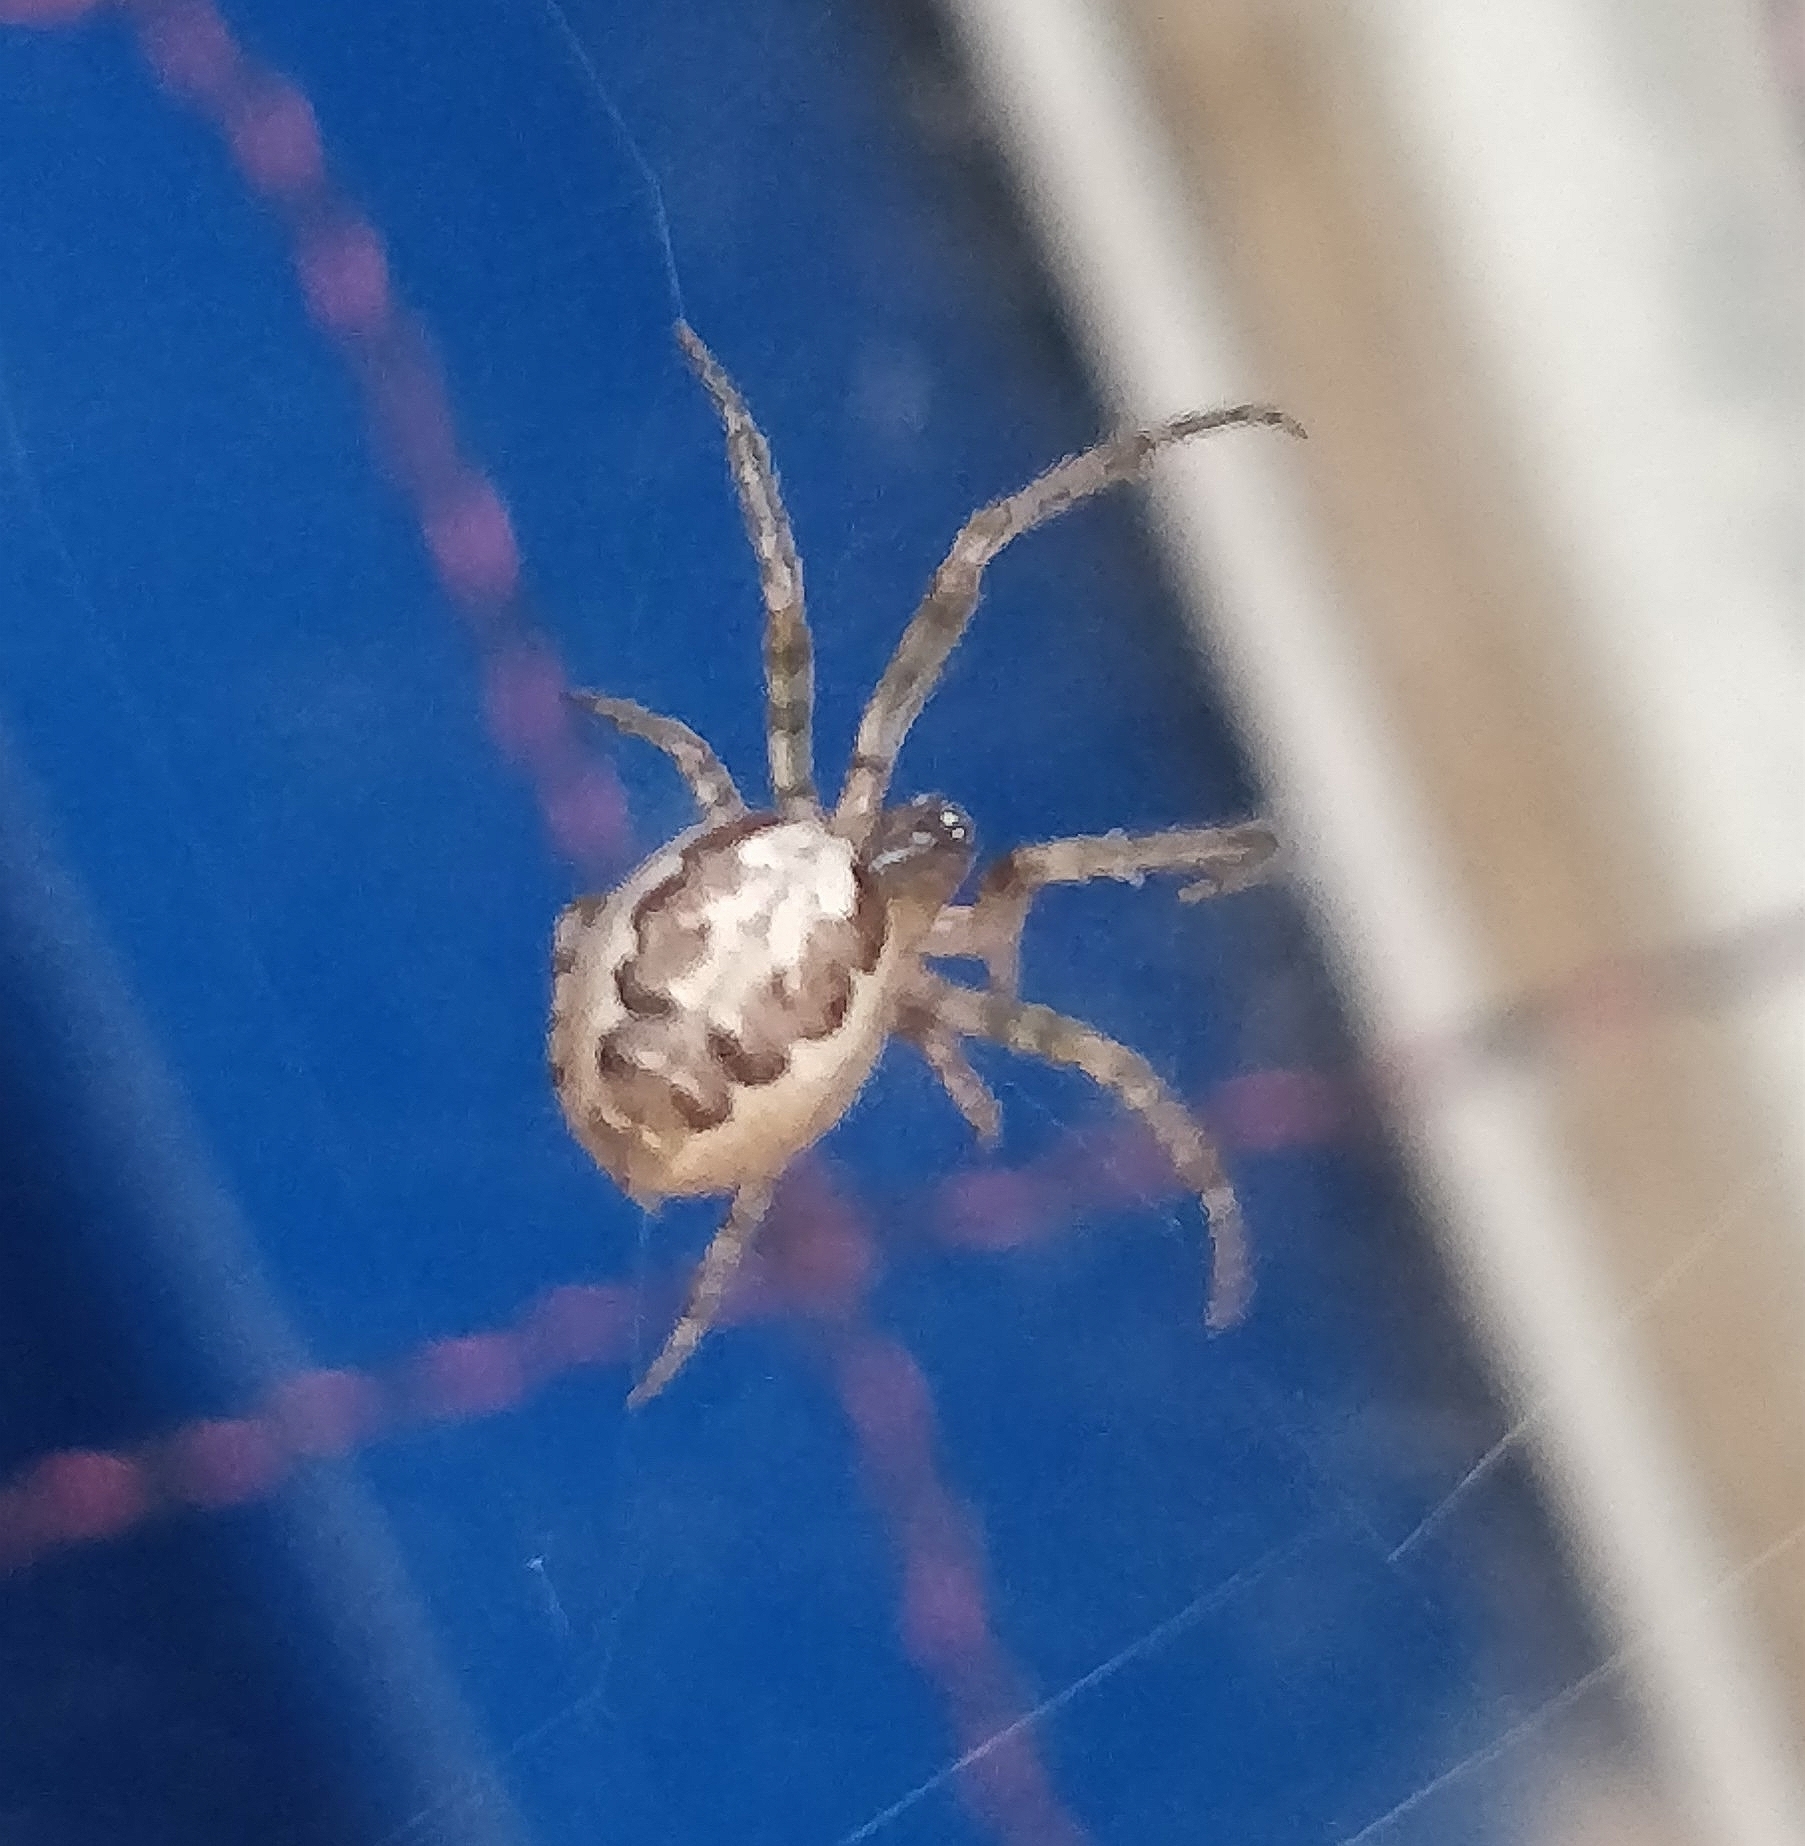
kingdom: Animalia
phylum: Arthropoda
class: Arachnida
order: Araneae
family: Araneidae
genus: Zygiella
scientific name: Zygiella x-notata
